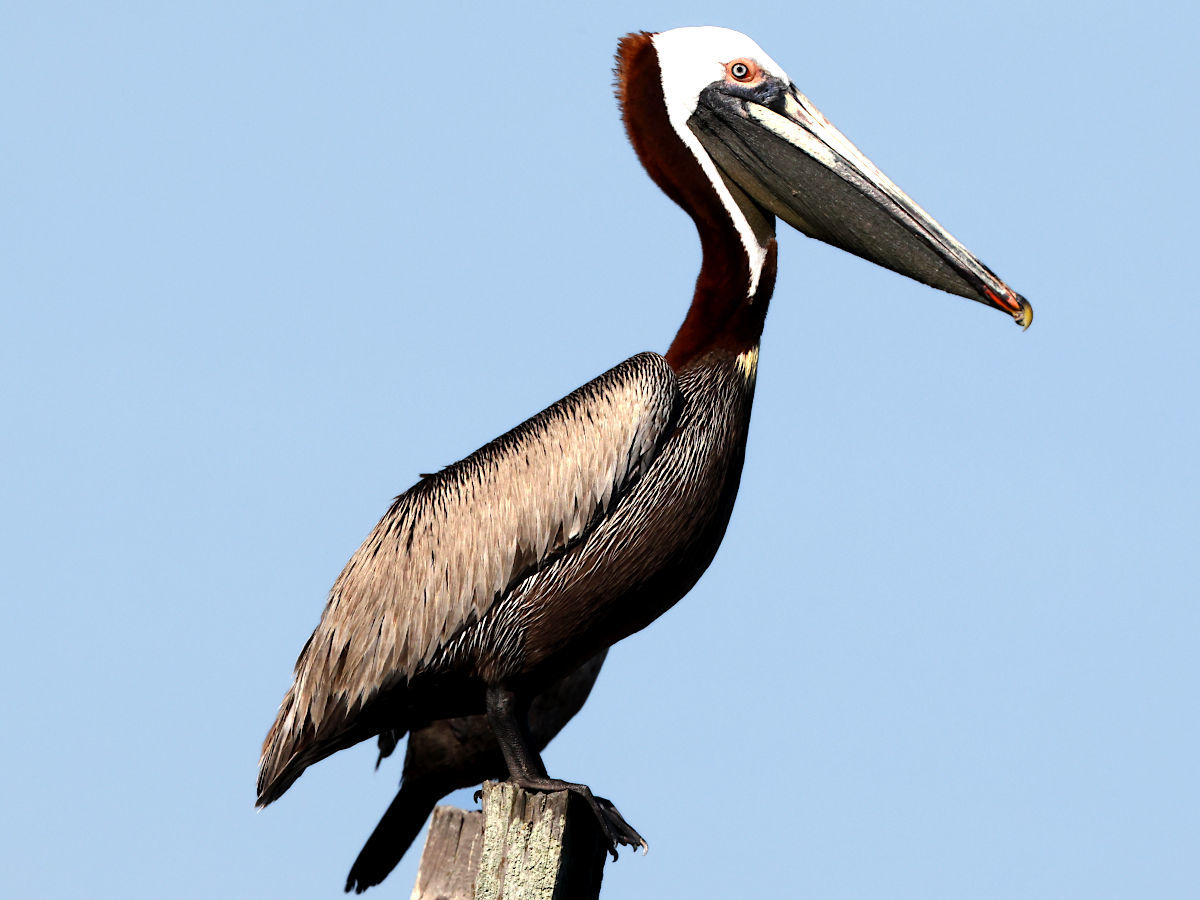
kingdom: Animalia
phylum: Chordata
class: Aves
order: Pelecaniformes
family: Pelecanidae
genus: Pelecanus
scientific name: Pelecanus occidentalis
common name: Brown pelican
